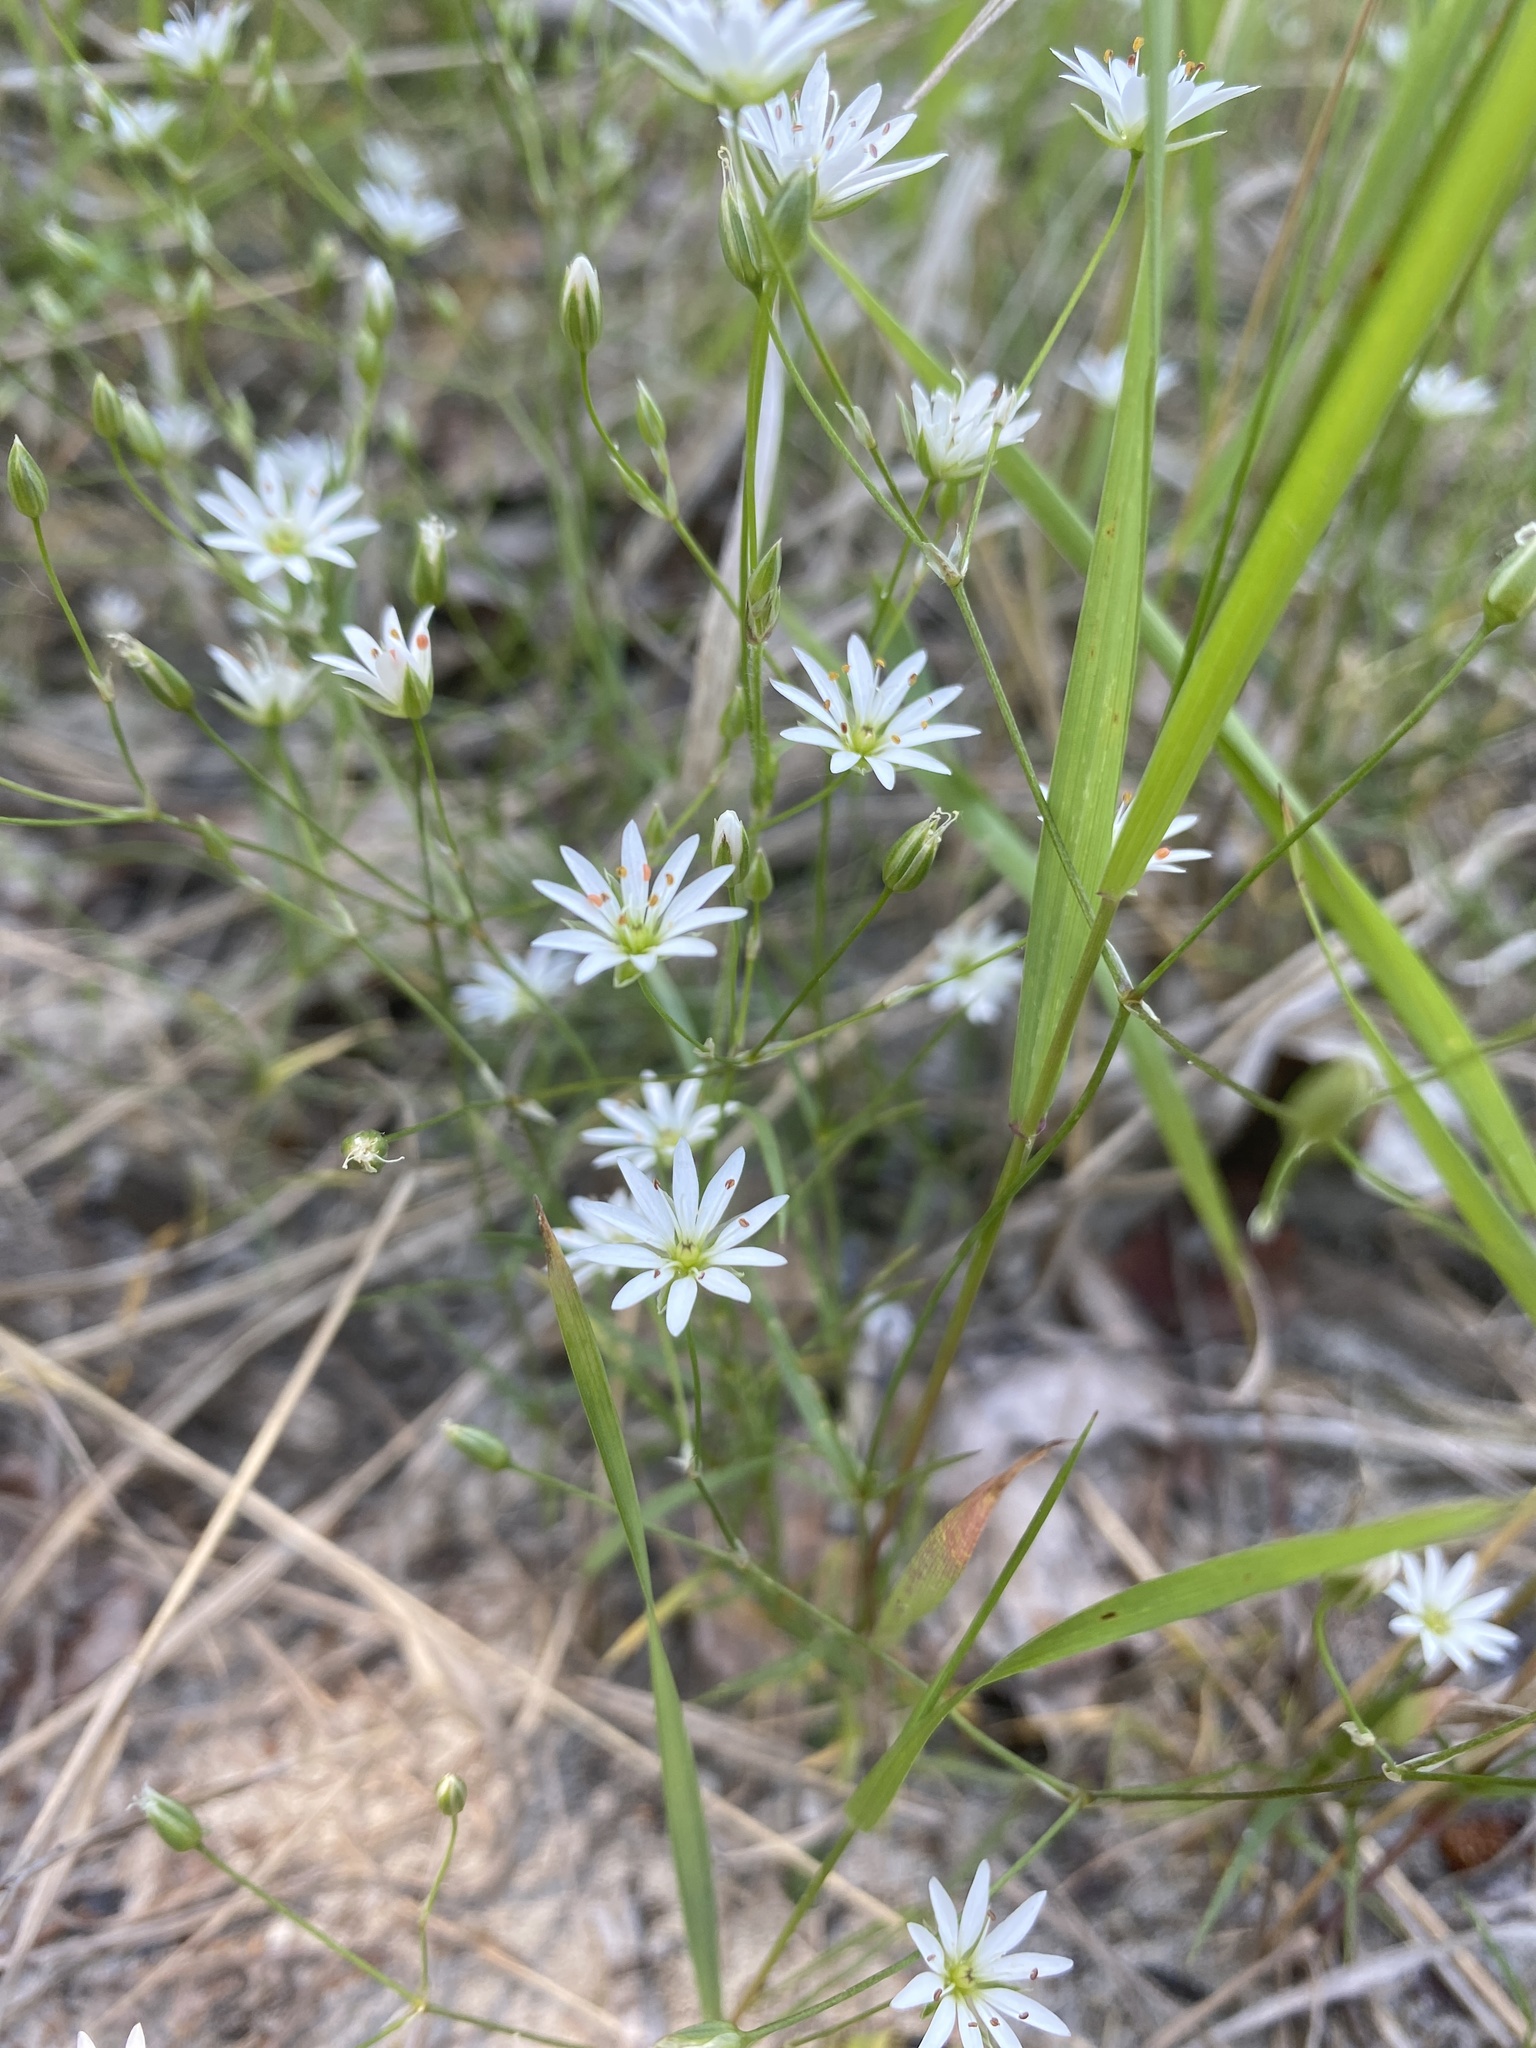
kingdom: Plantae
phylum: Tracheophyta
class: Magnoliopsida
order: Caryophyllales
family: Caryophyllaceae
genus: Stellaria
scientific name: Stellaria longipes
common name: Goldie's starwort
